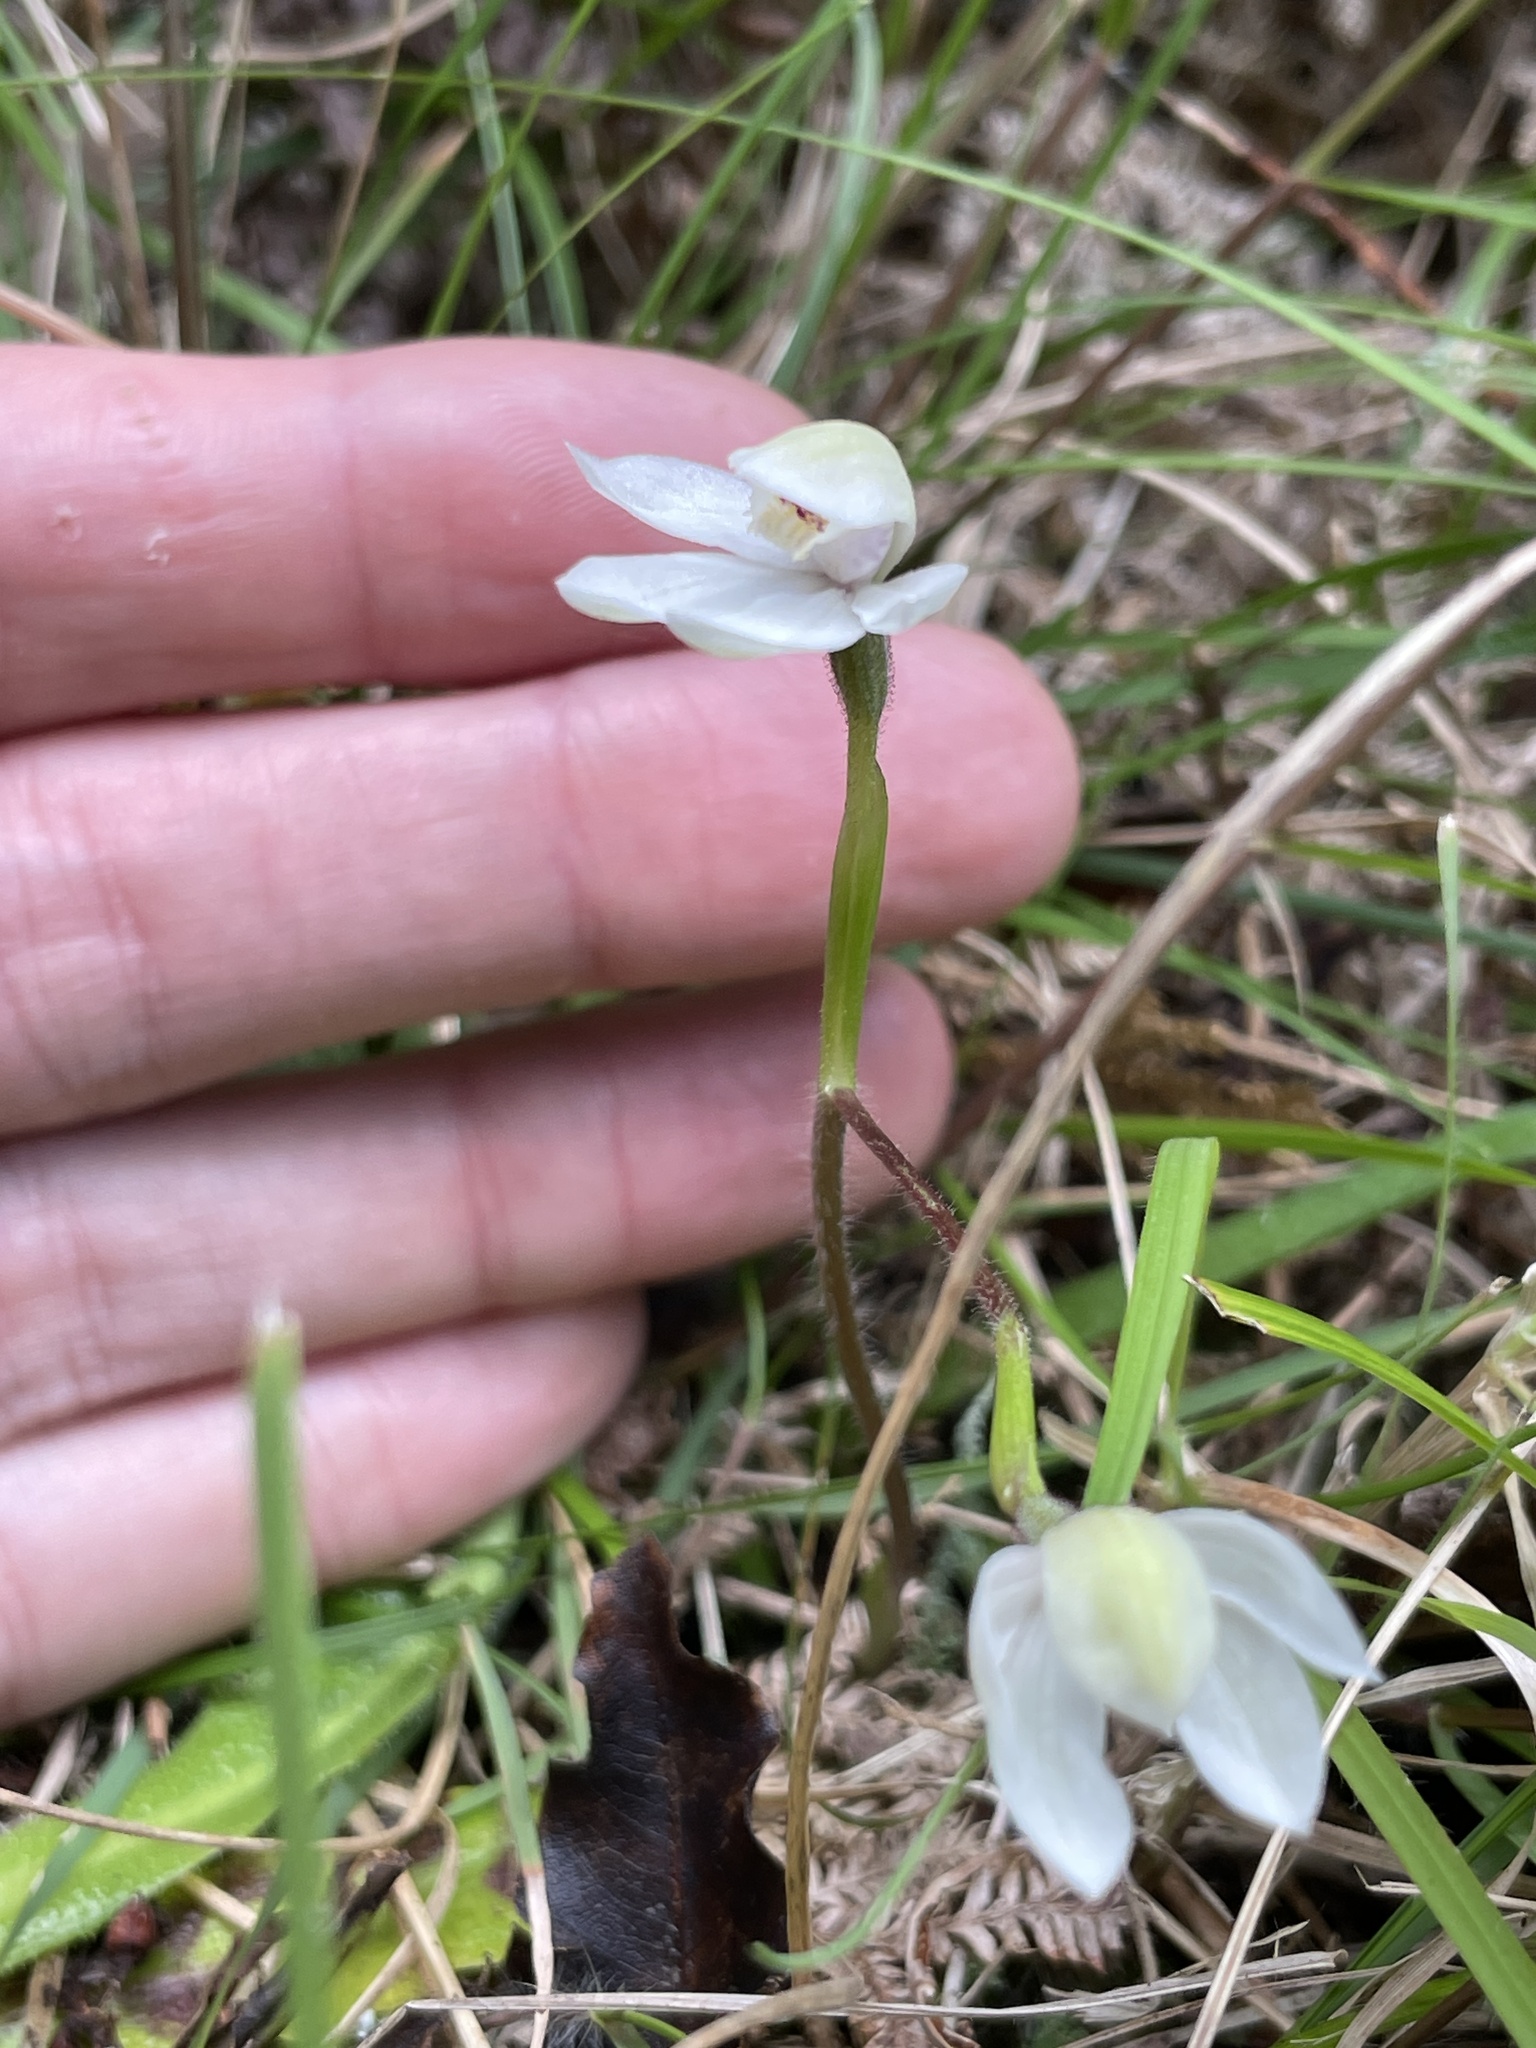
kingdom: Plantae
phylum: Tracheophyta
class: Liliopsida
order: Asparagales
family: Orchidaceae
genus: Caladenia
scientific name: Caladenia lyallii
